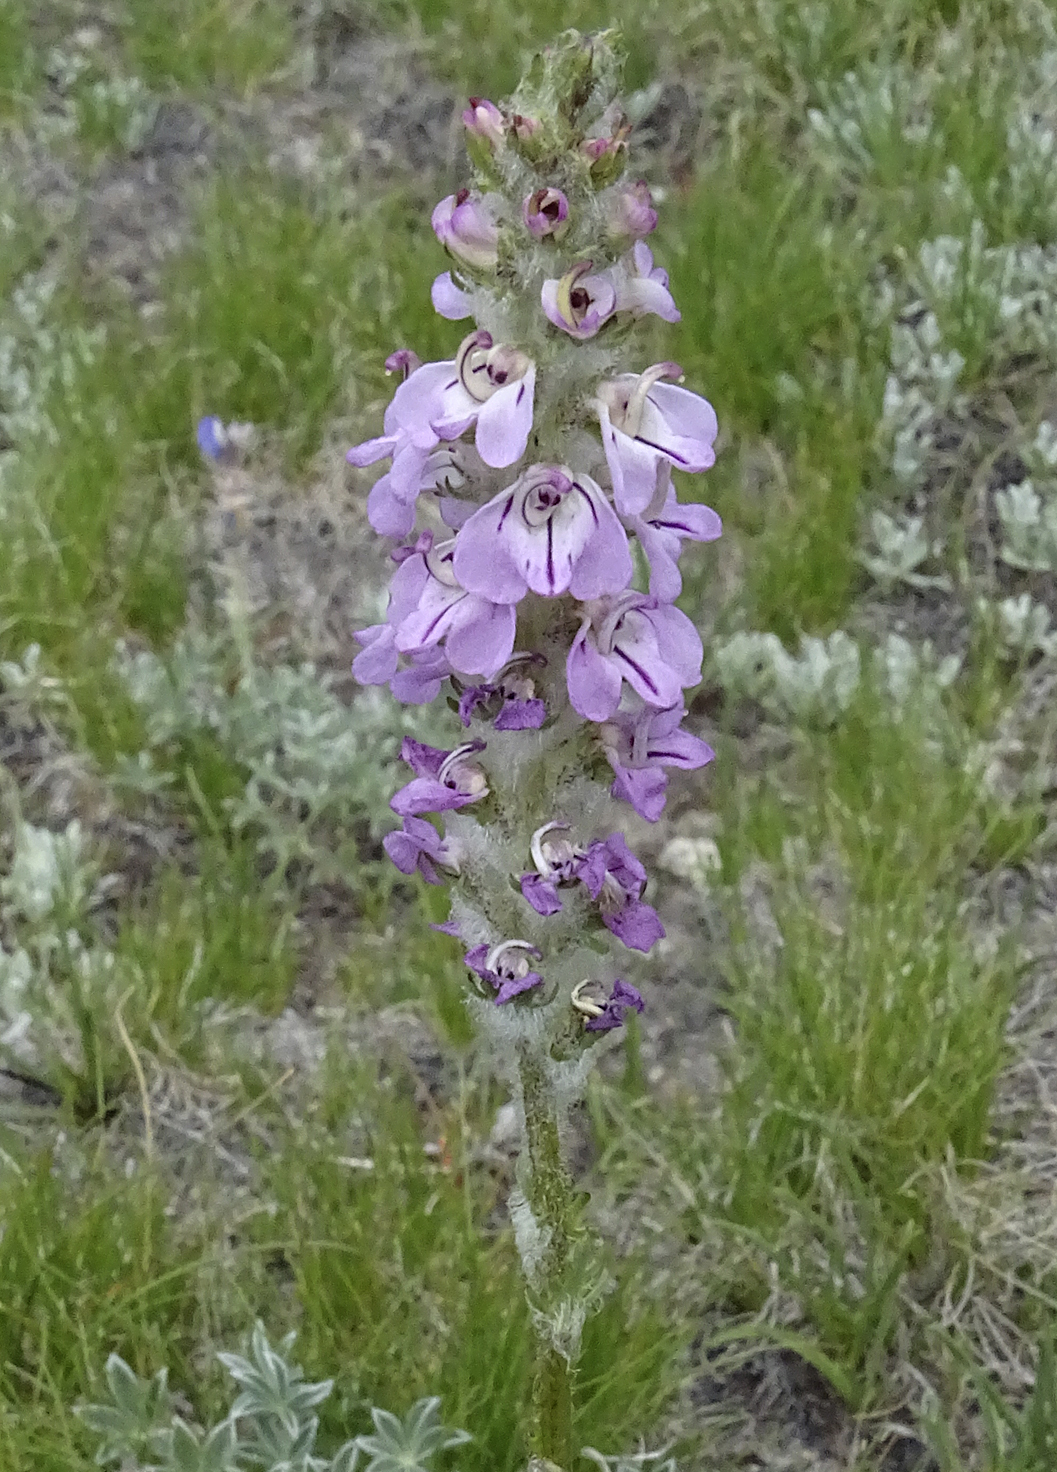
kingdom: Plantae
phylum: Tracheophyta
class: Magnoliopsida
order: Lamiales
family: Orobanchaceae
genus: Pedicularis
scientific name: Pedicularis attollens
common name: Slender pedicularis
